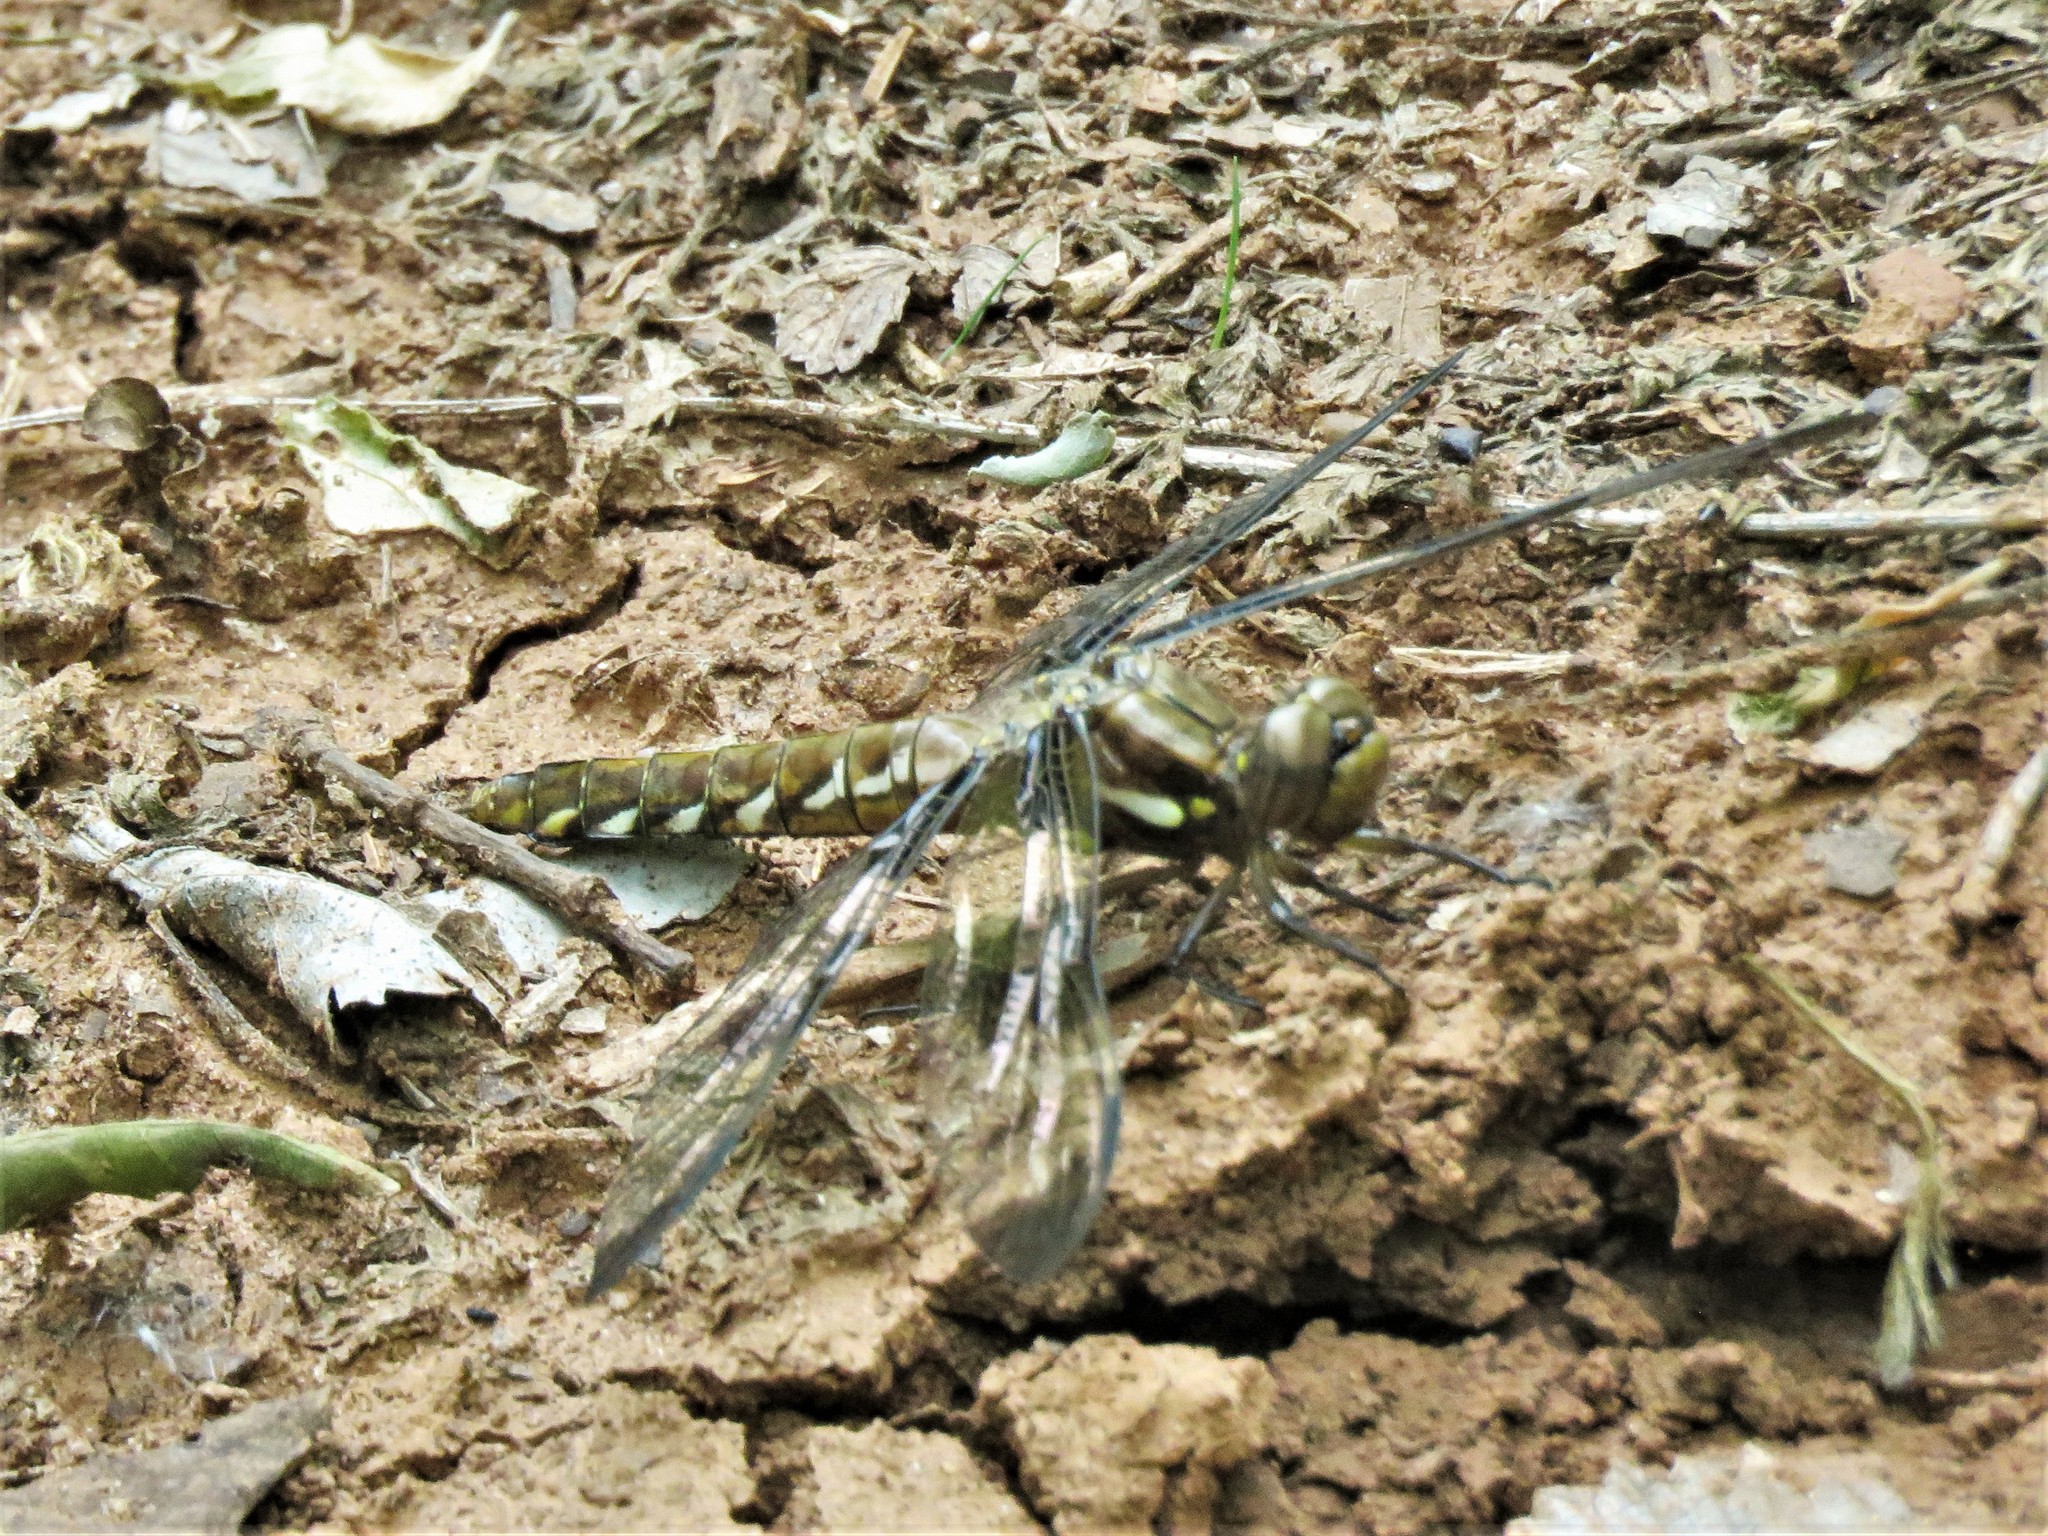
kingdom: Animalia
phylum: Arthropoda
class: Insecta
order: Odonata
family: Libellulidae
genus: Plathemis
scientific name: Plathemis lydia
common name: Common whitetail
